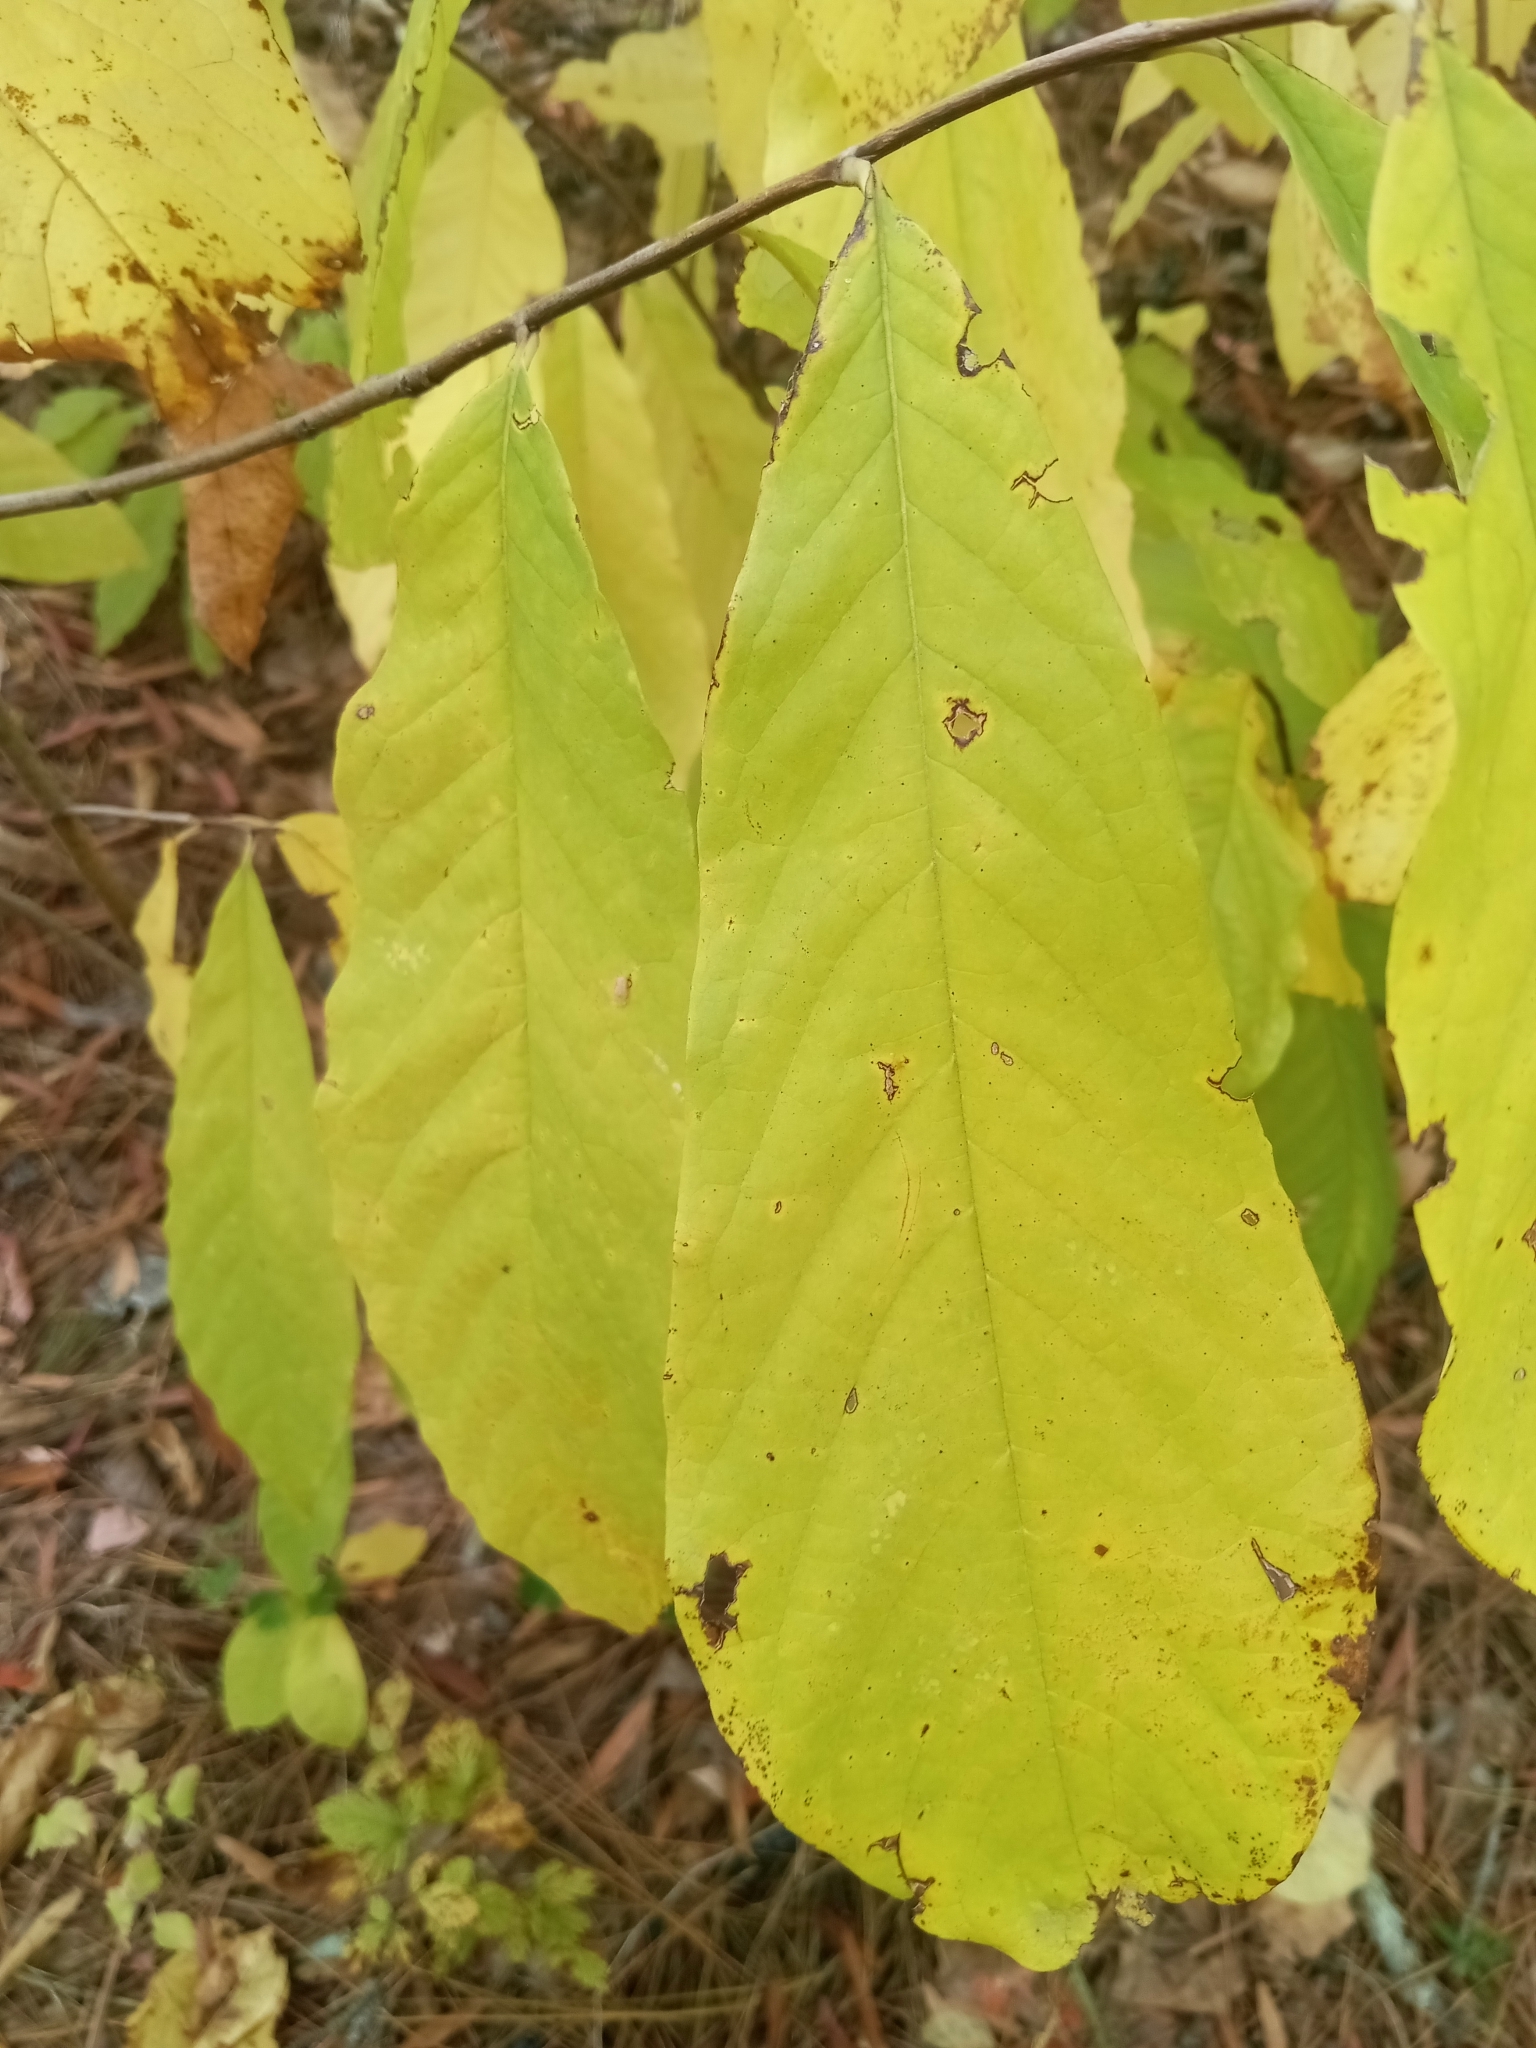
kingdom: Plantae
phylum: Tracheophyta
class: Magnoliopsida
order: Magnoliales
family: Annonaceae
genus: Asimina
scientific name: Asimina triloba
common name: Dog-banana
